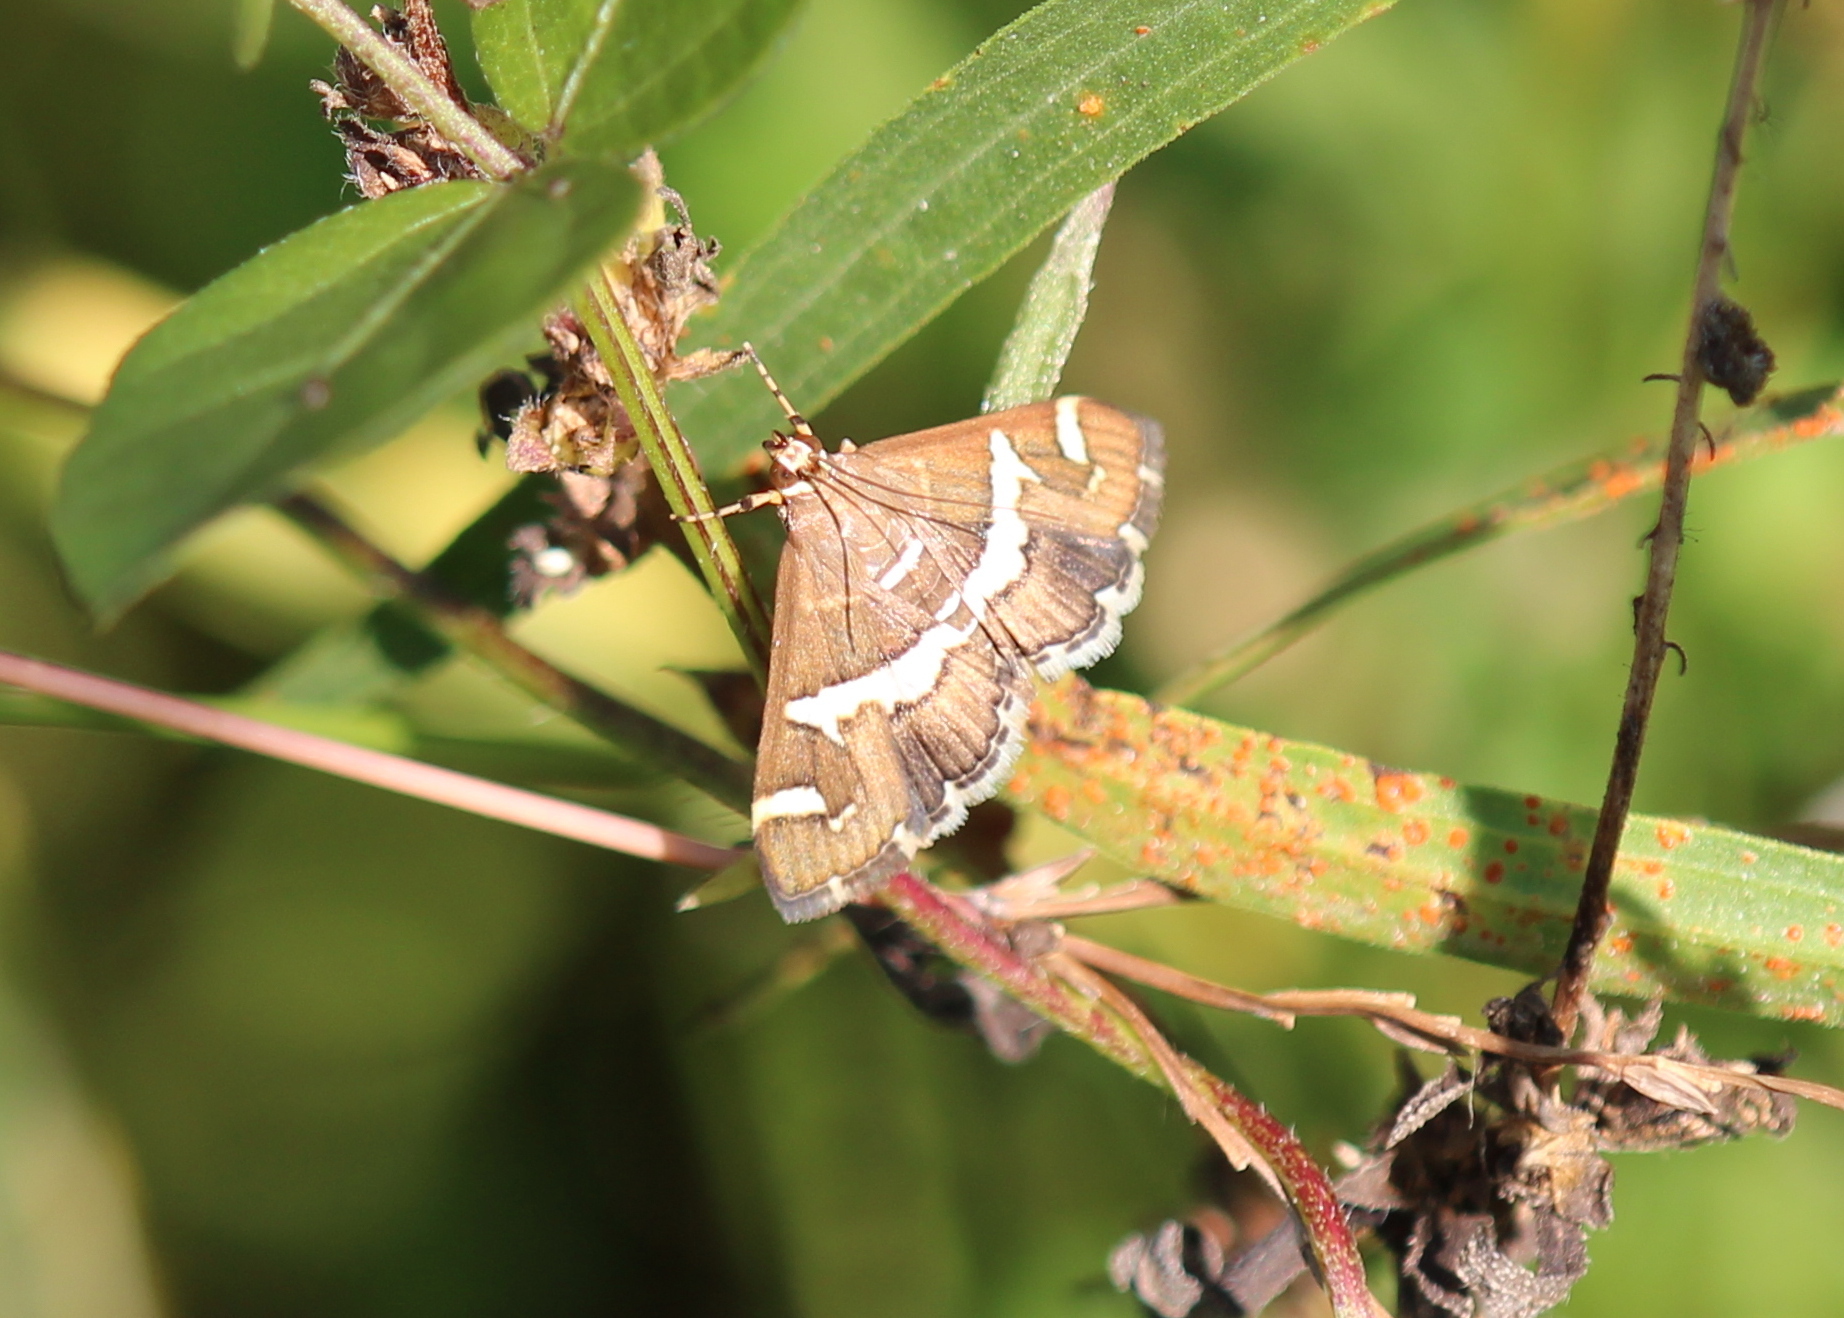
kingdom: Animalia
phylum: Arthropoda
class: Insecta
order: Lepidoptera
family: Crambidae
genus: Spoladea
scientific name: Spoladea recurvalis
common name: Beet webworm moth
